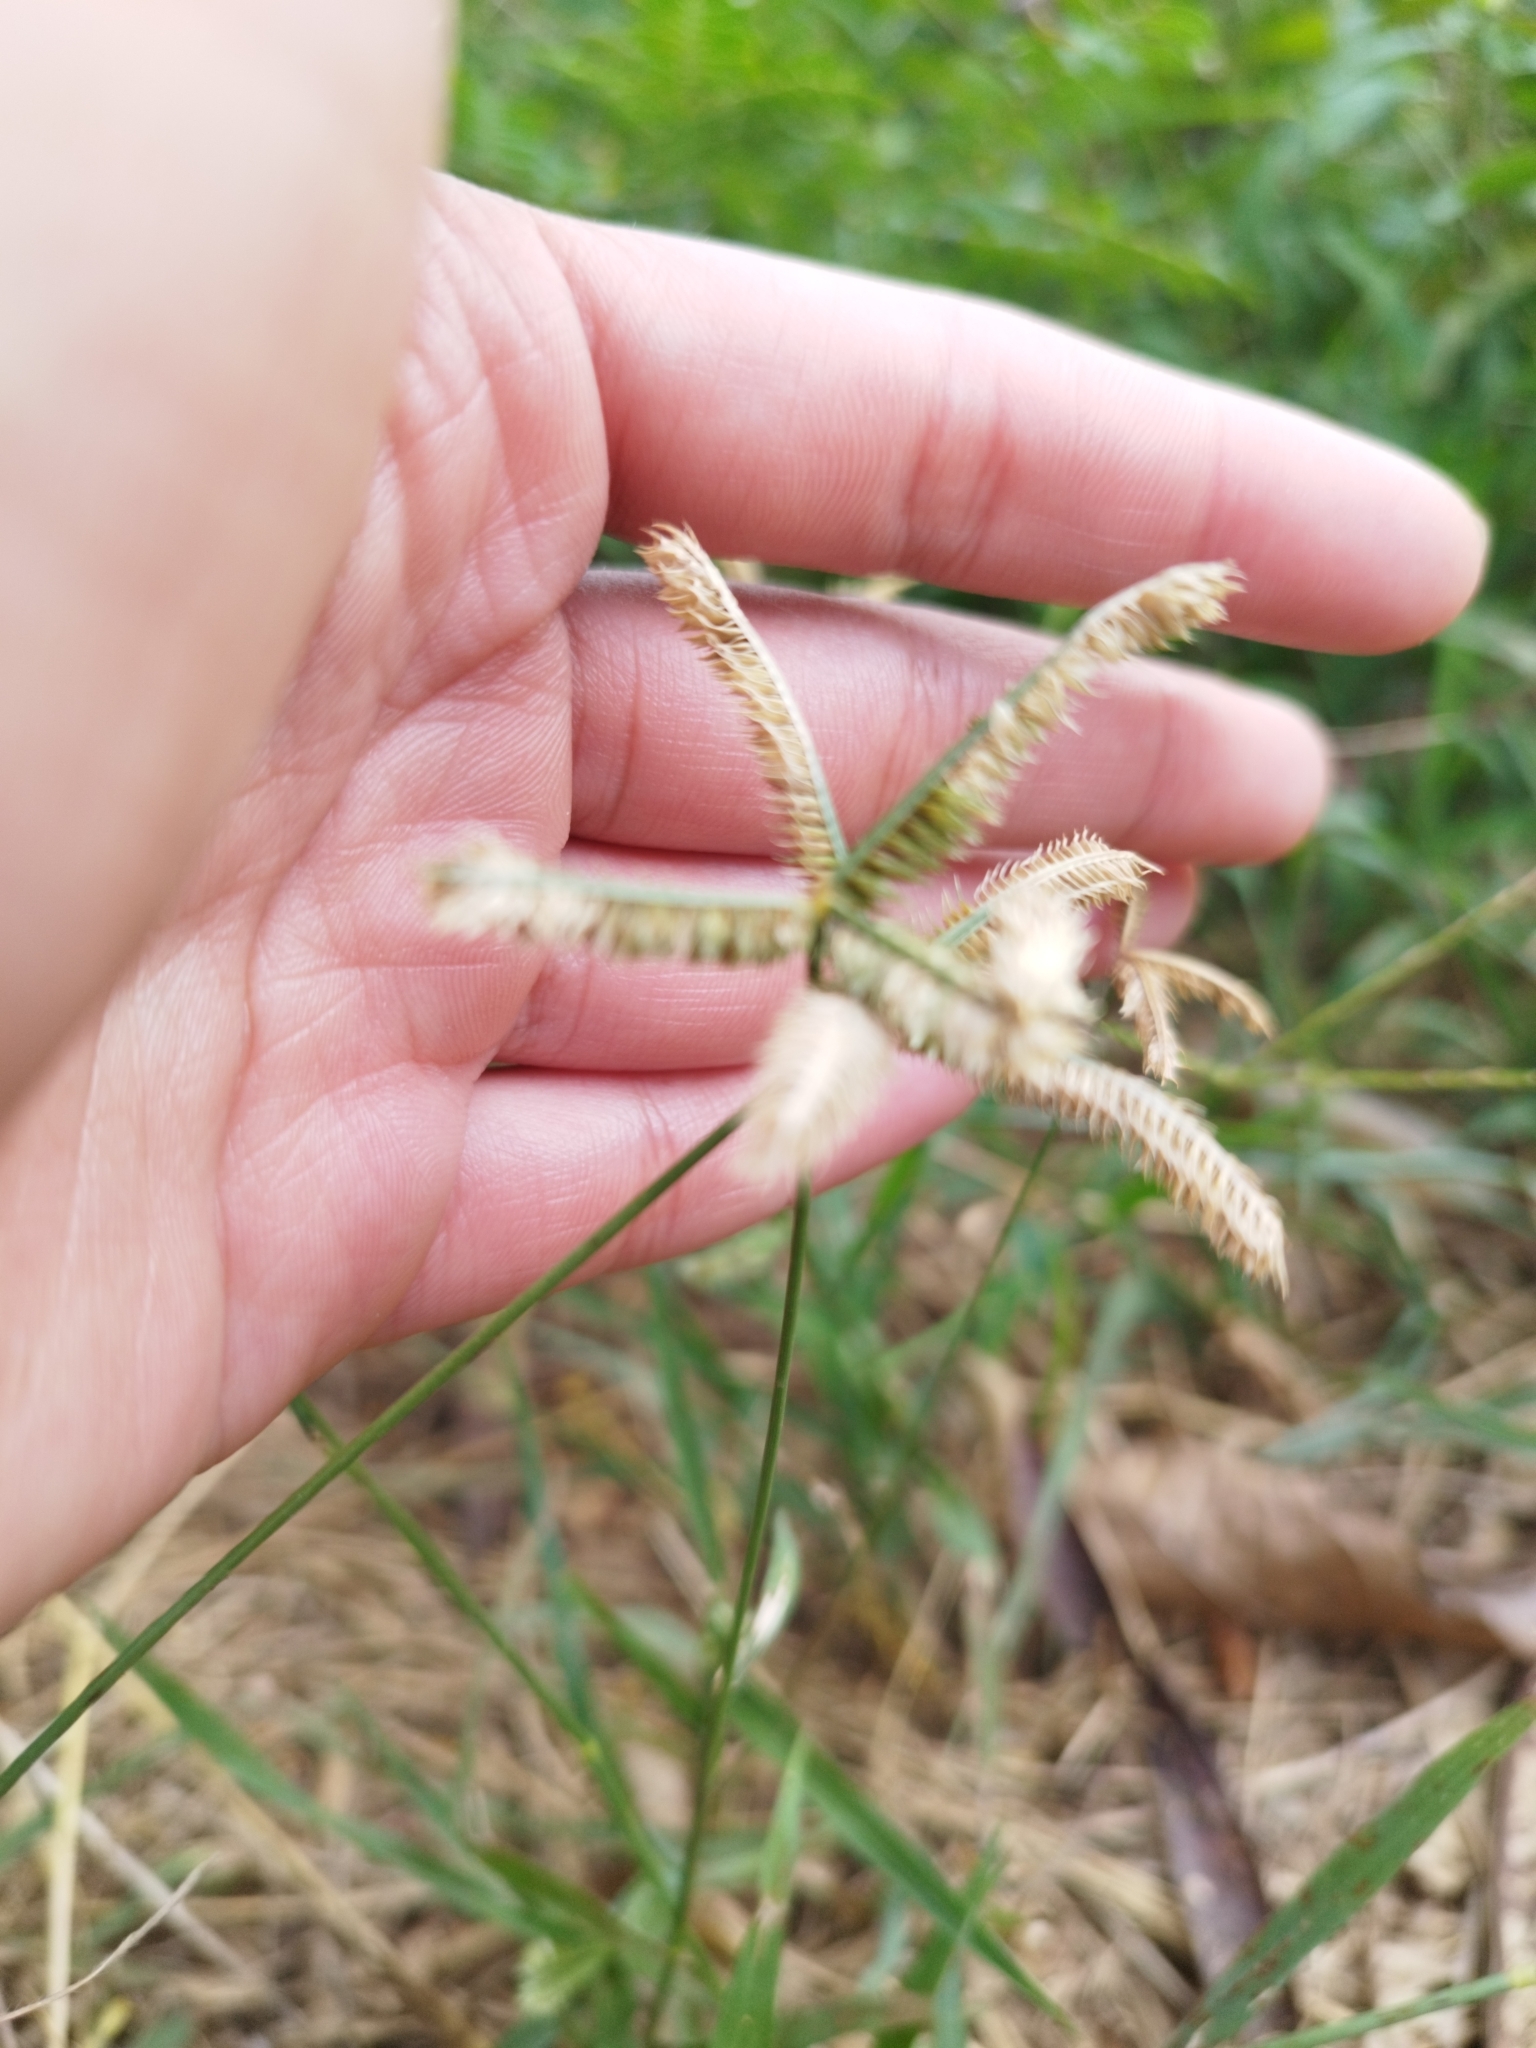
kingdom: Plantae
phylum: Tracheophyta
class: Liliopsida
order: Poales
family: Poaceae
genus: Dactyloctenium
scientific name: Dactyloctenium aegyptium
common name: Egyptian grass
